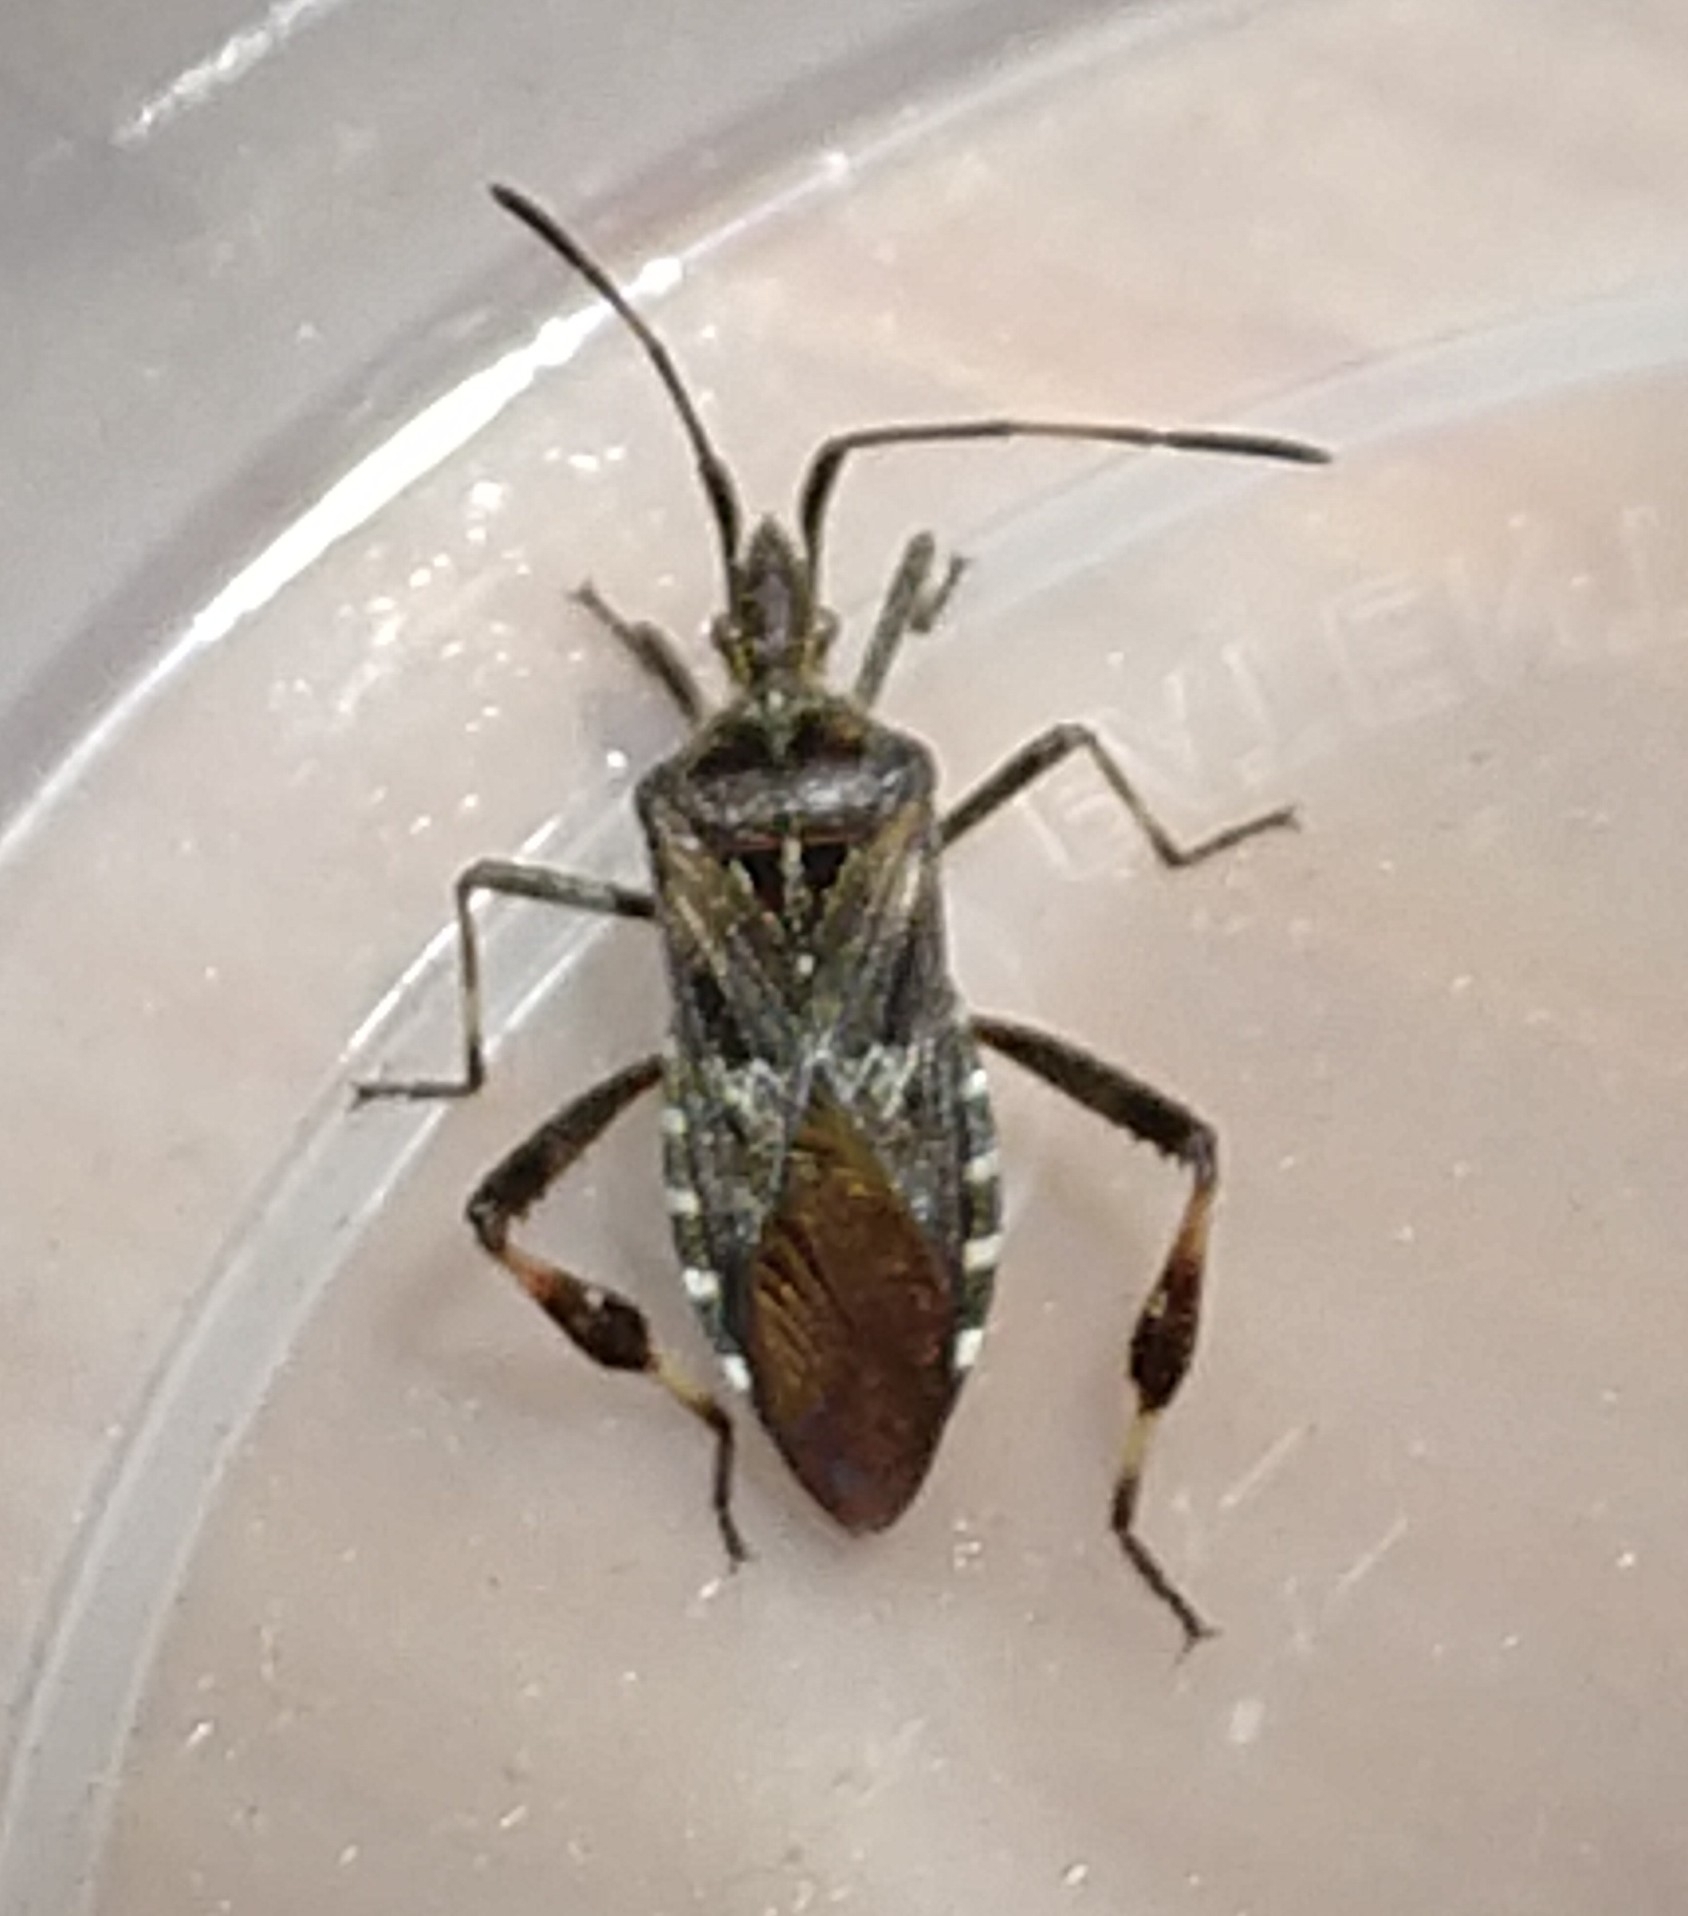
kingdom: Animalia
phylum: Arthropoda
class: Insecta
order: Hemiptera
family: Coreidae
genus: Leptoglossus
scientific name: Leptoglossus occidentalis
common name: Western conifer-seed bug
